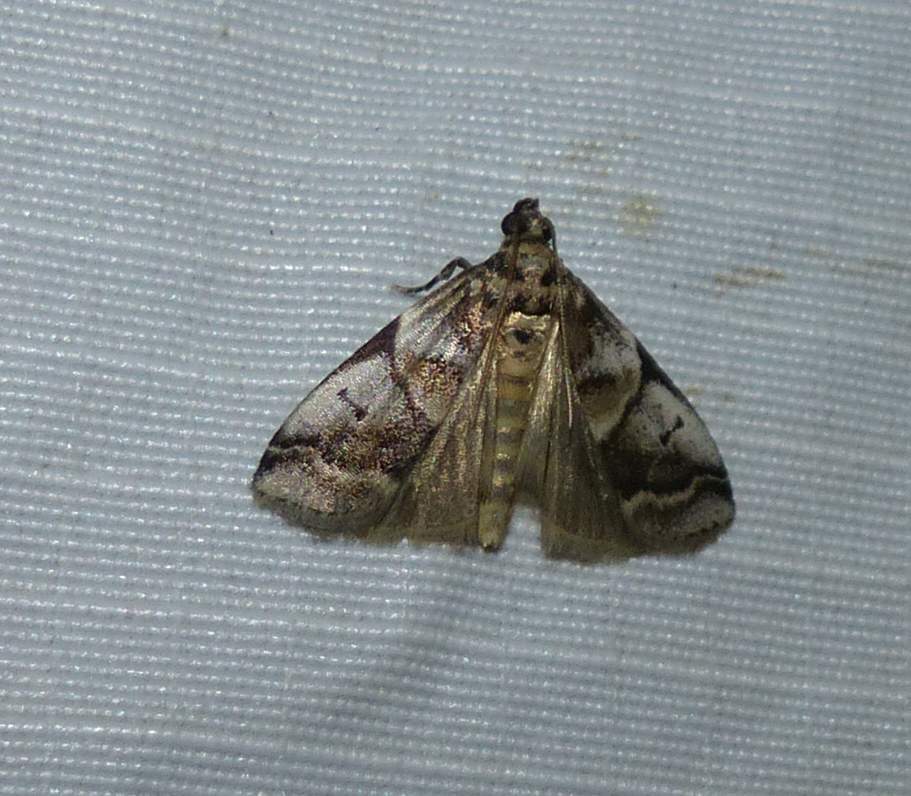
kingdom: Animalia
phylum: Arthropoda
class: Insecta
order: Lepidoptera
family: Pyralidae
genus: Acrobasis
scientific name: Acrobasis indigenella
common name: Leaf crumpler moth
